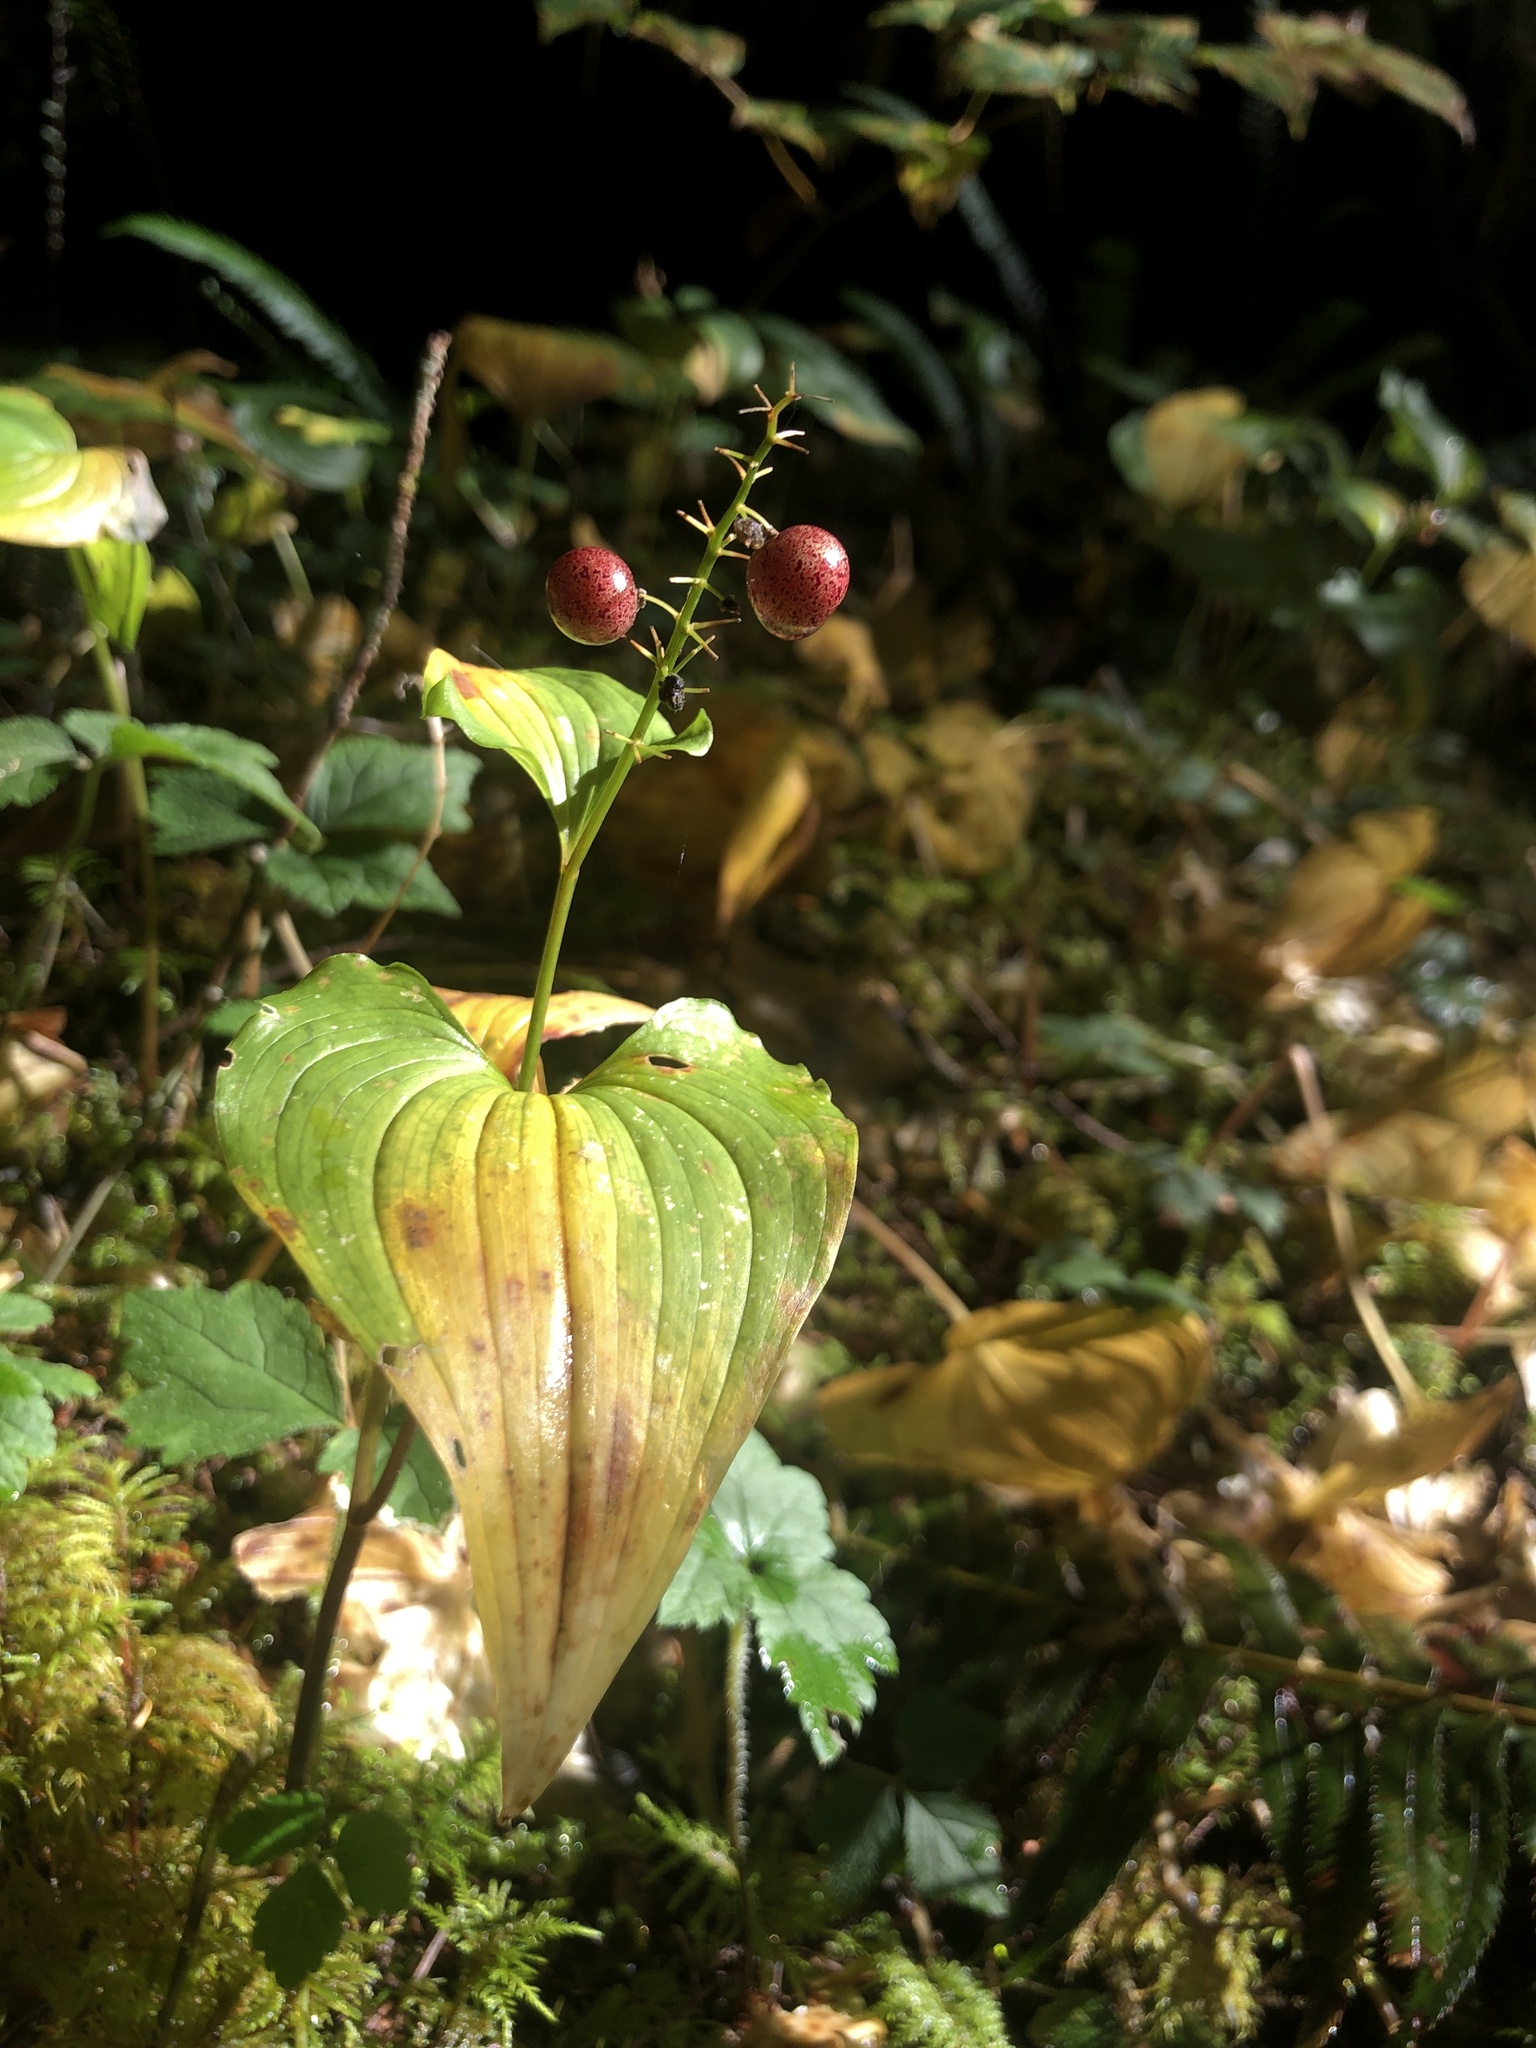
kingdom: Plantae
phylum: Tracheophyta
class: Liliopsida
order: Asparagales
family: Asparagaceae
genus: Maianthemum
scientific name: Maianthemum dilatatum
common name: False lily-of-the-valley
